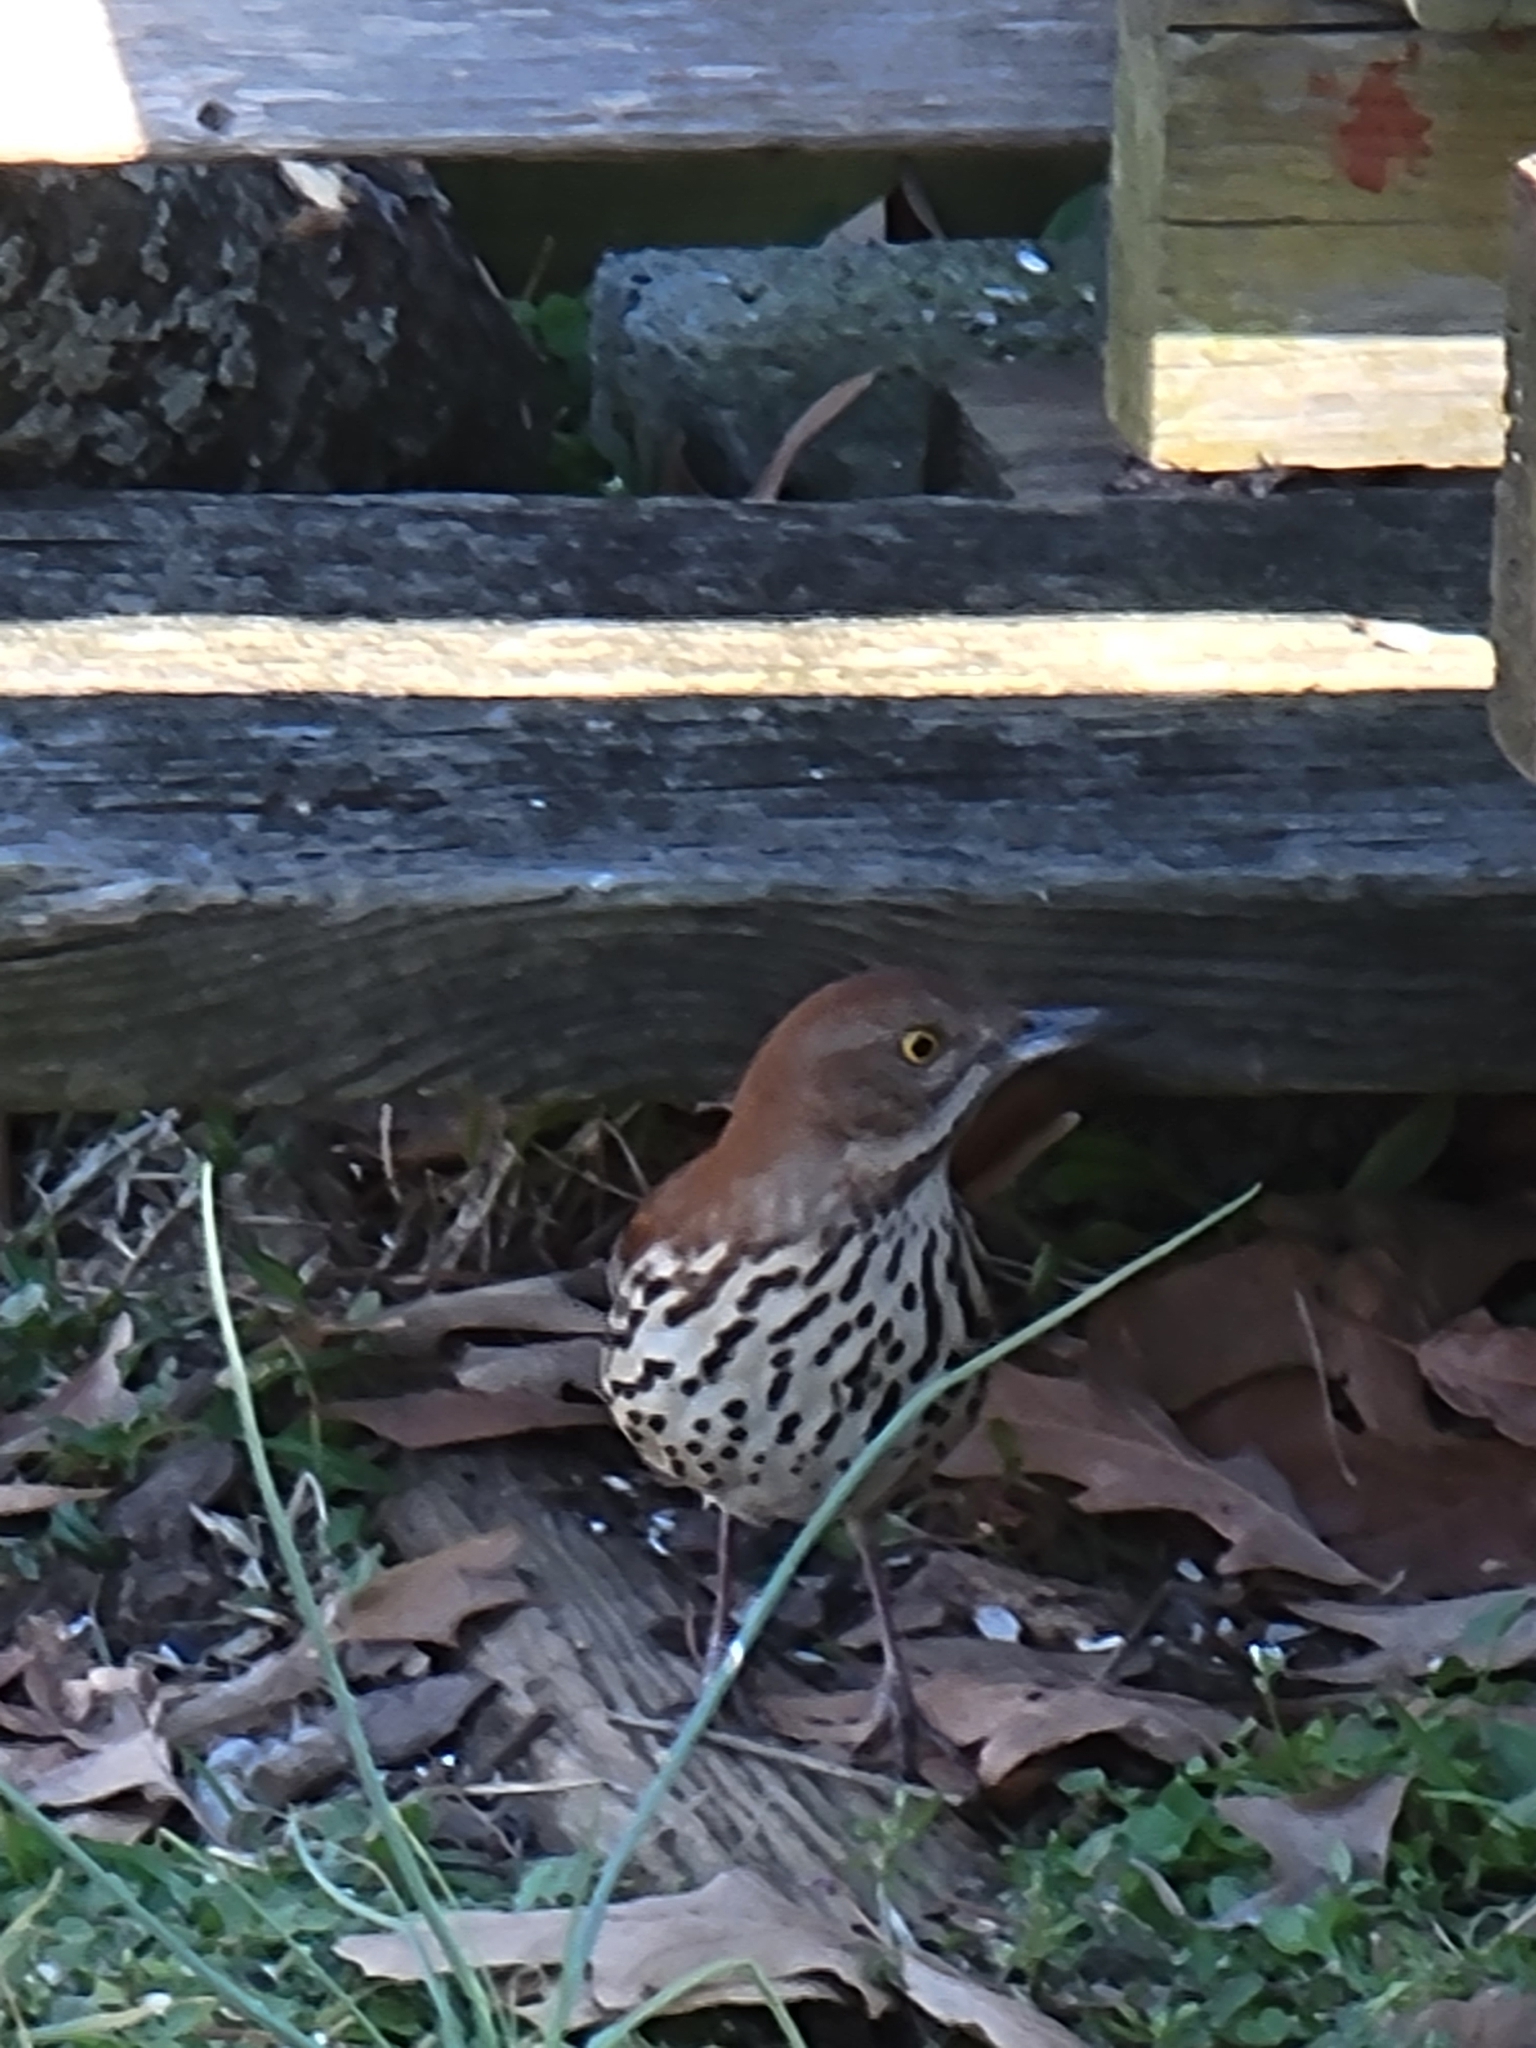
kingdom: Animalia
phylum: Chordata
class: Aves
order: Passeriformes
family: Mimidae
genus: Toxostoma
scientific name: Toxostoma rufum
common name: Brown thrasher
